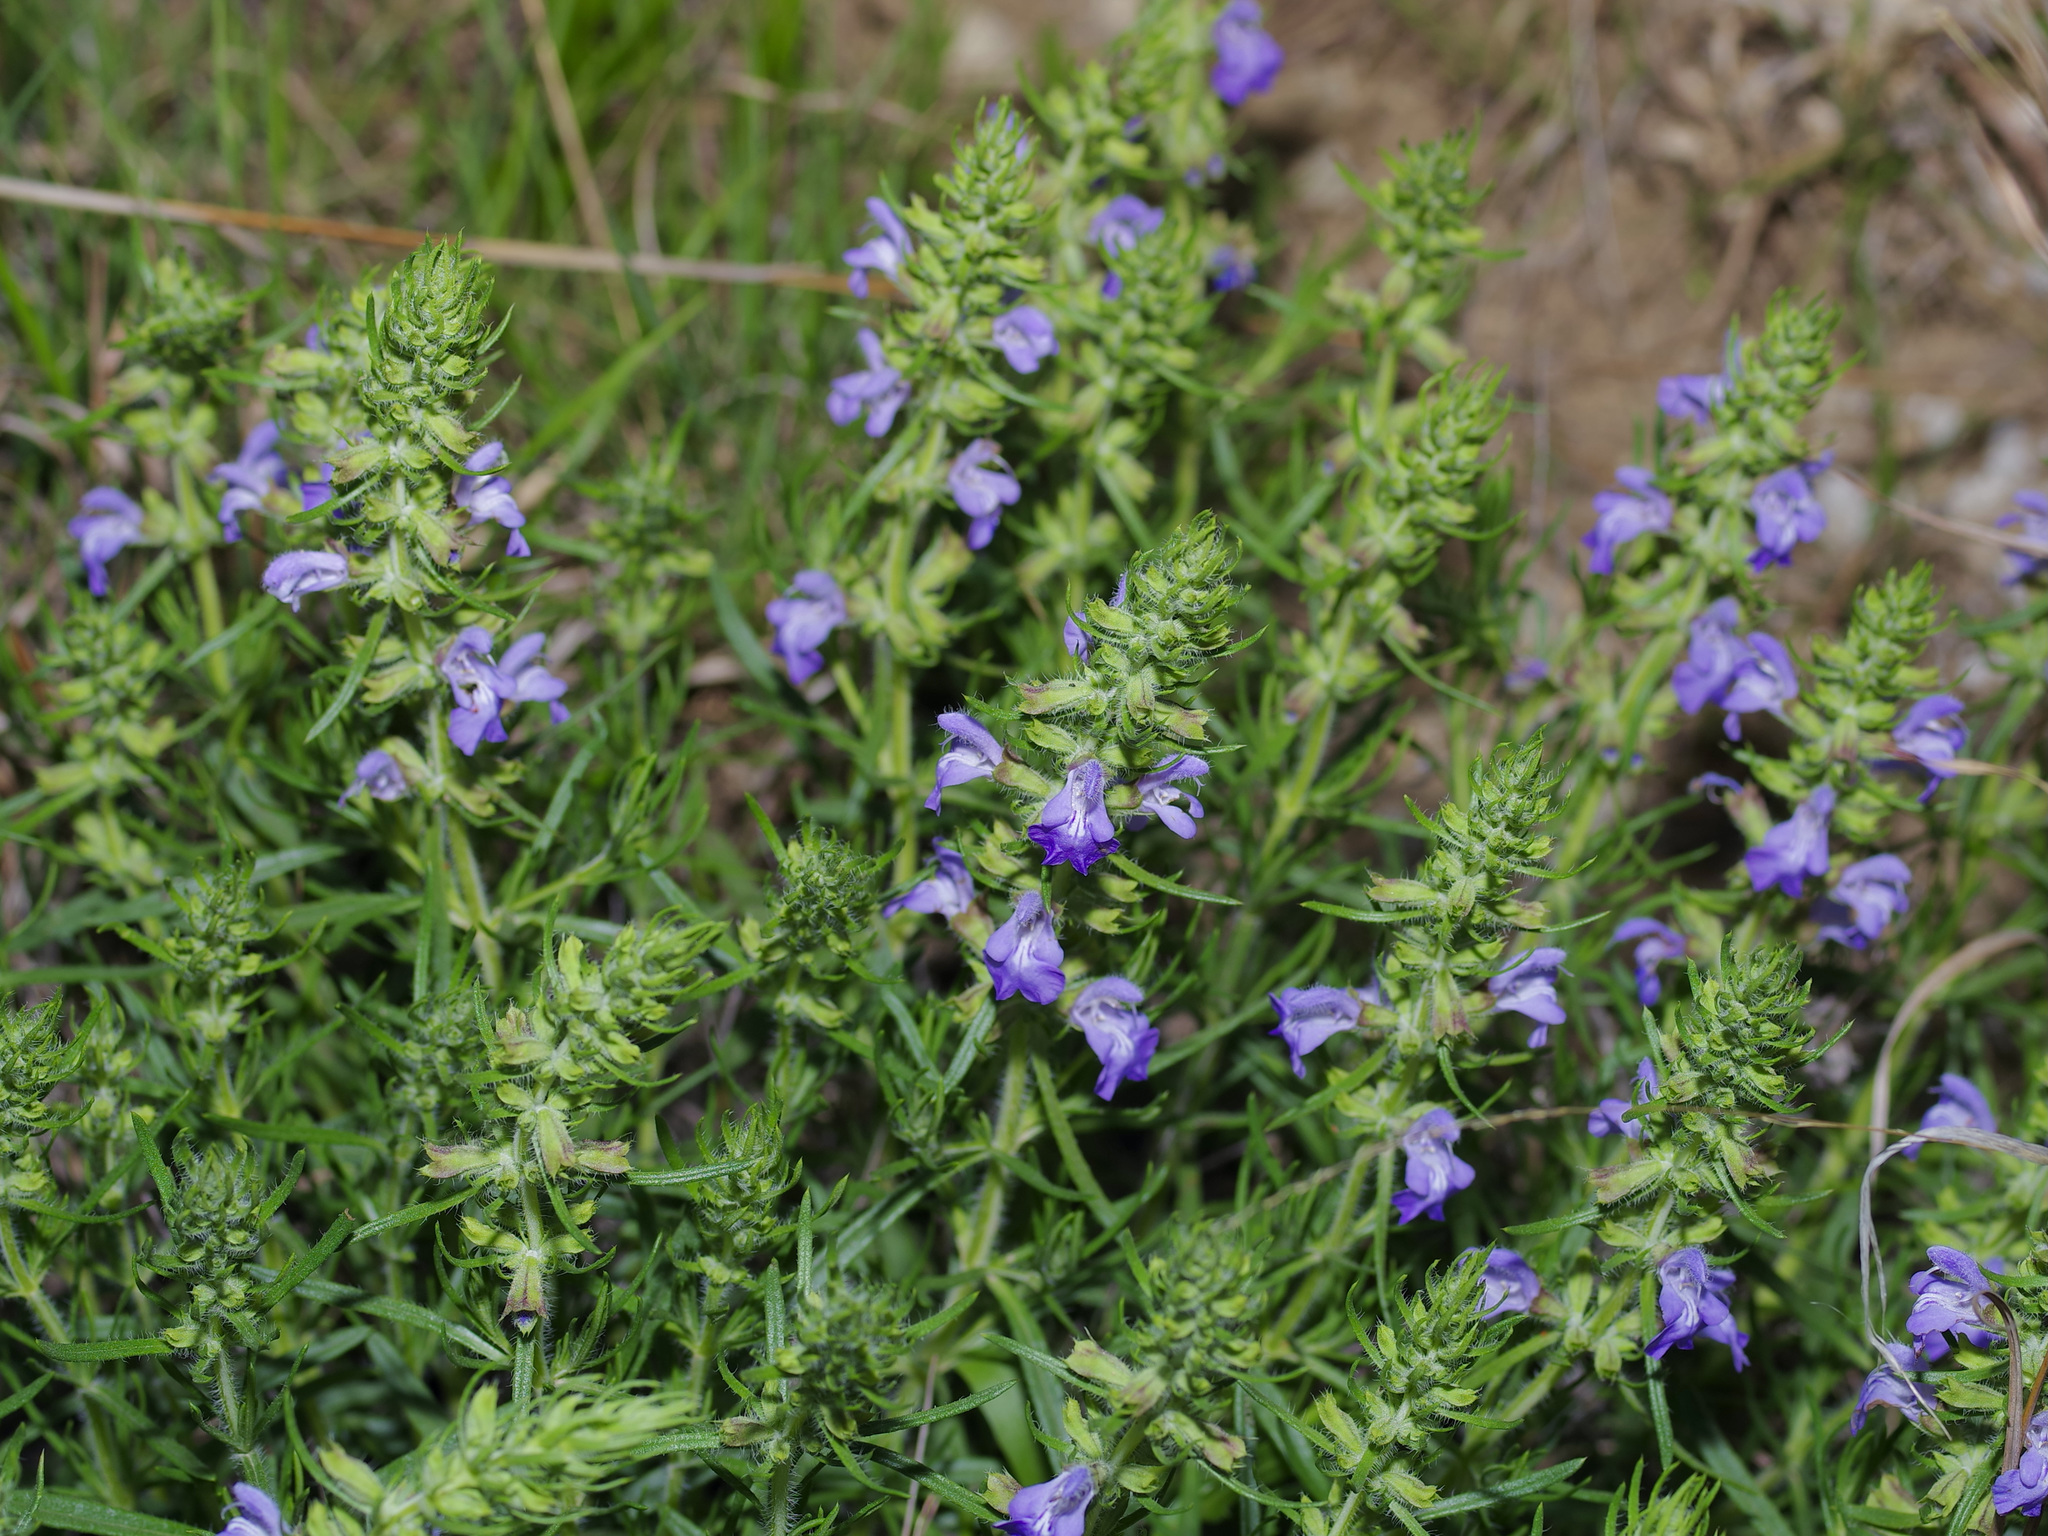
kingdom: Plantae
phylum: Tracheophyta
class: Magnoliopsida
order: Lamiales
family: Lamiaceae
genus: Salvia
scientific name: Salvia engelmannii
